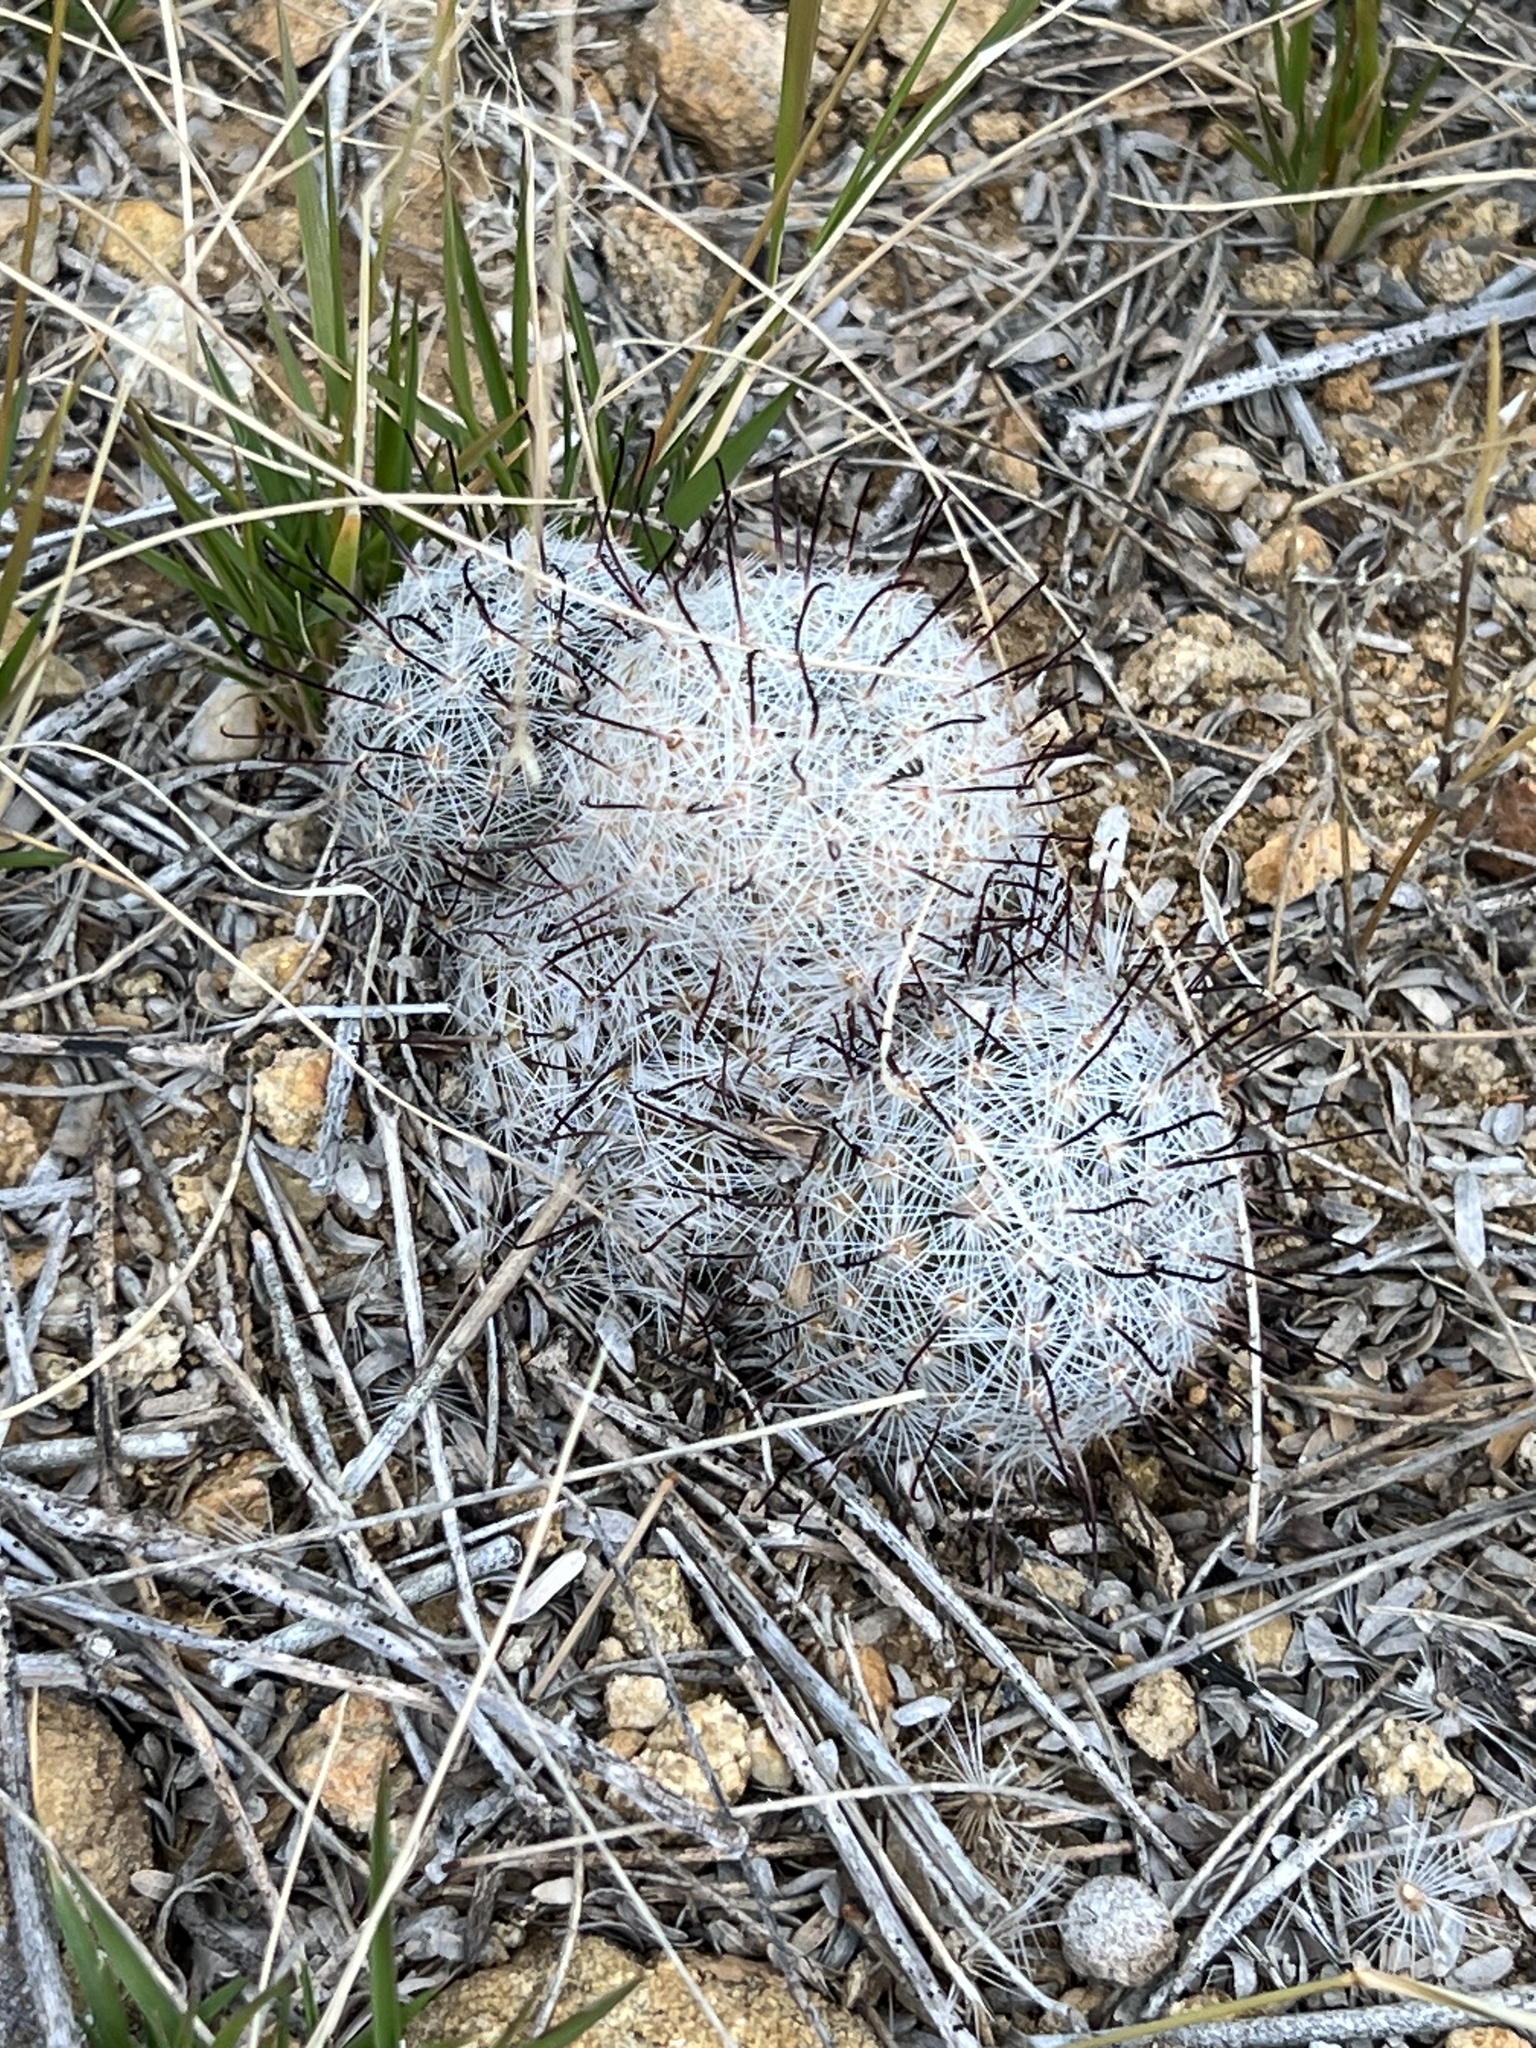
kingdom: Plantae
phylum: Tracheophyta
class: Magnoliopsida
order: Caryophyllales
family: Cactaceae
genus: Cochemiea
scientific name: Cochemiea grahamii
